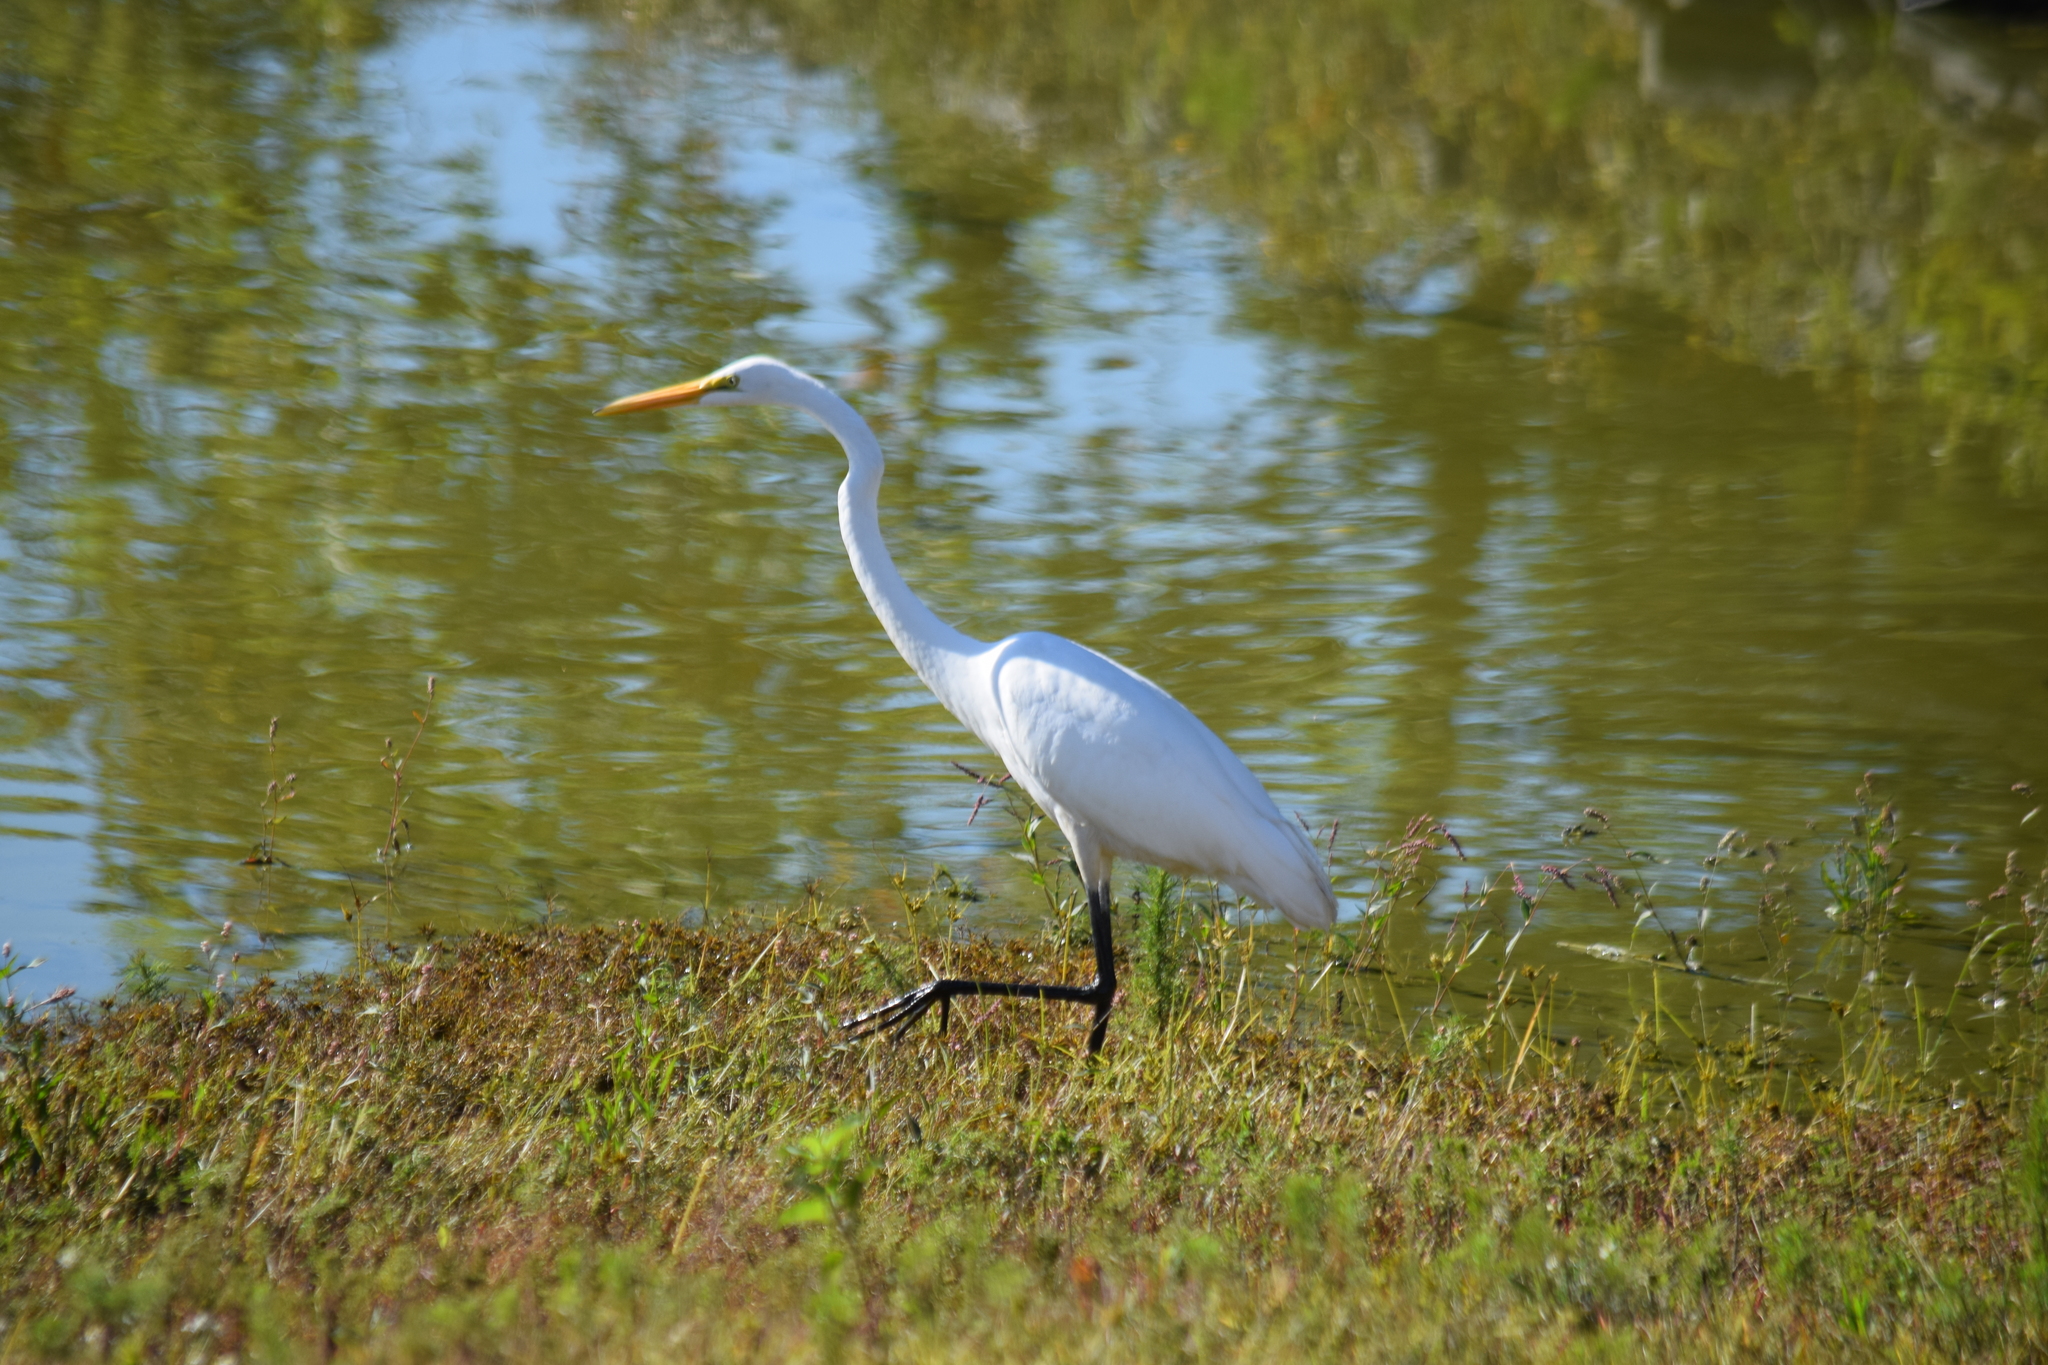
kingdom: Animalia
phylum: Chordata
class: Aves
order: Pelecaniformes
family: Ardeidae
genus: Ardea
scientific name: Ardea alba
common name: Great egret
